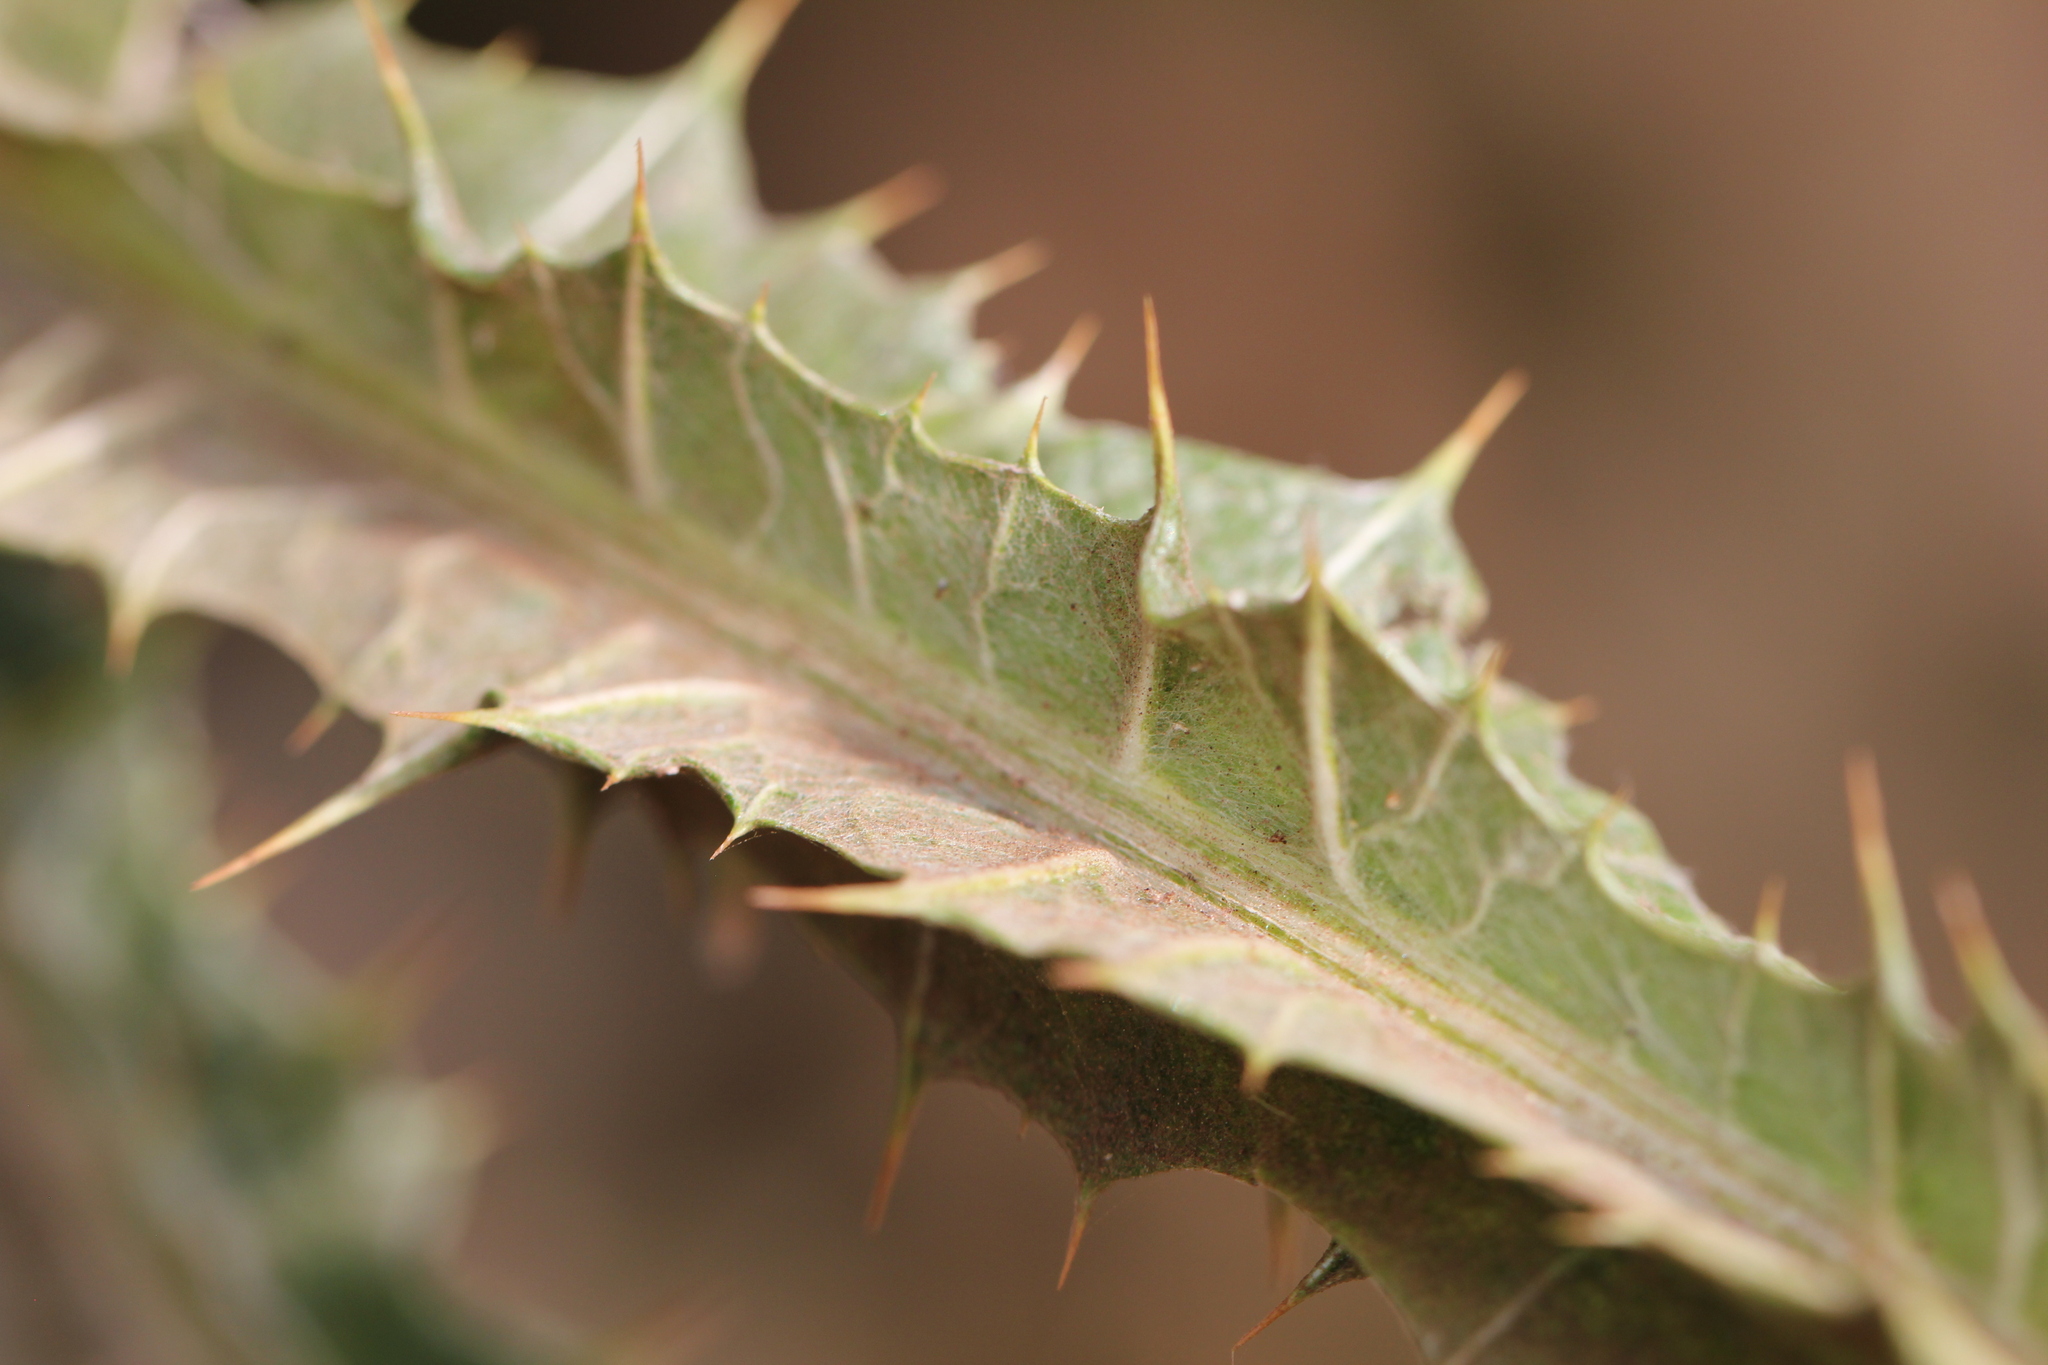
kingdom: Plantae
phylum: Tracheophyta
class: Magnoliopsida
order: Asterales
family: Asteraceae
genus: Onopordum
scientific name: Onopordum acanthium
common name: Scotch thistle
